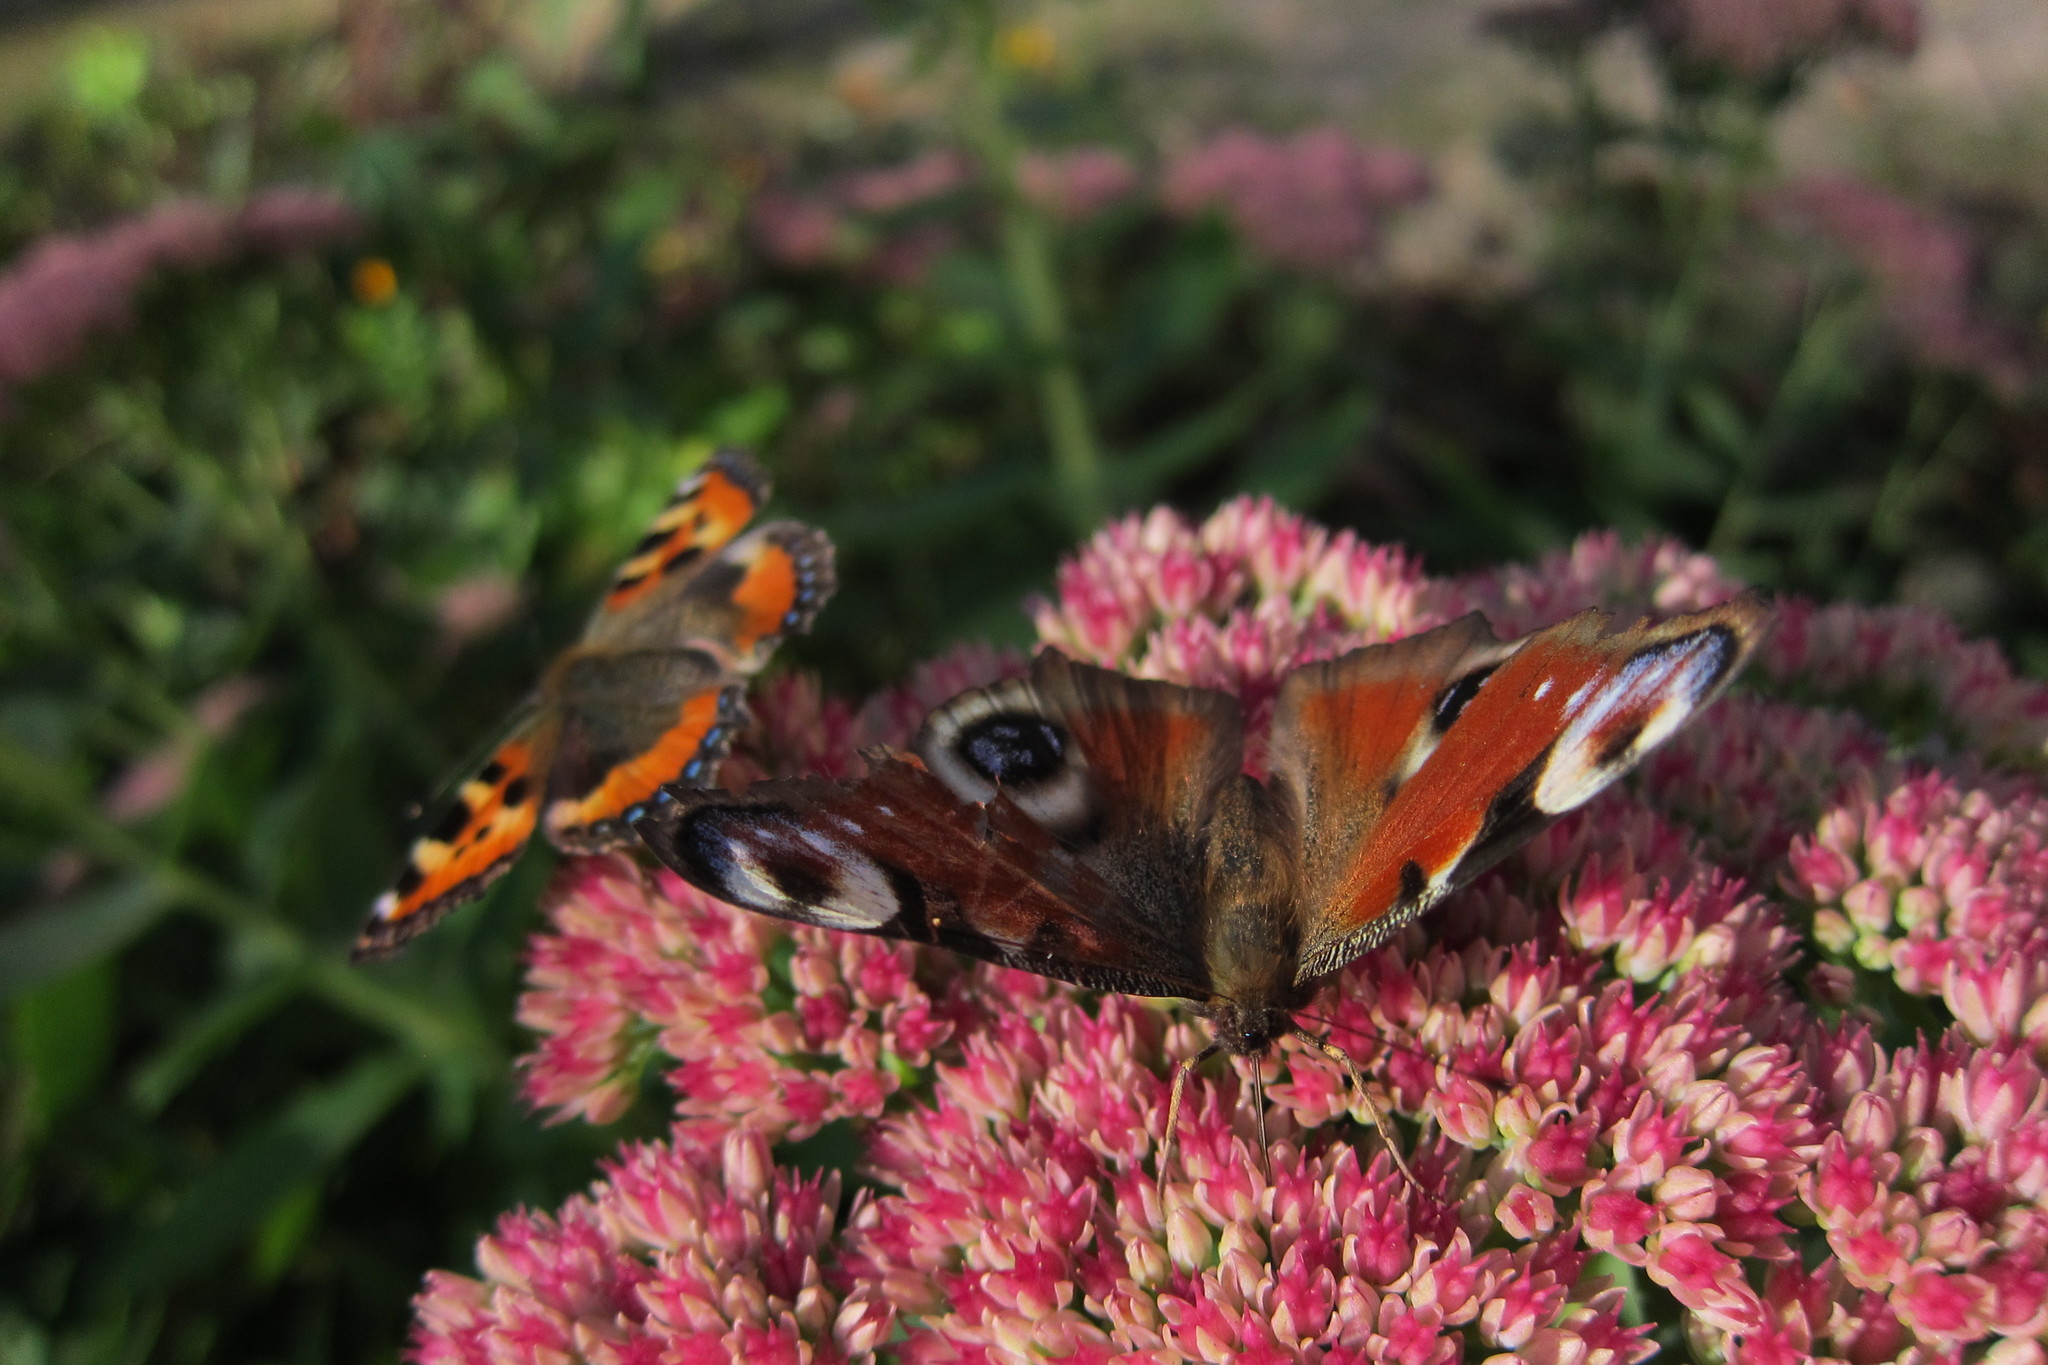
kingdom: Animalia
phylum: Arthropoda
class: Insecta
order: Lepidoptera
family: Nymphalidae
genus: Aglais
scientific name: Aglais io
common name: Peacock
